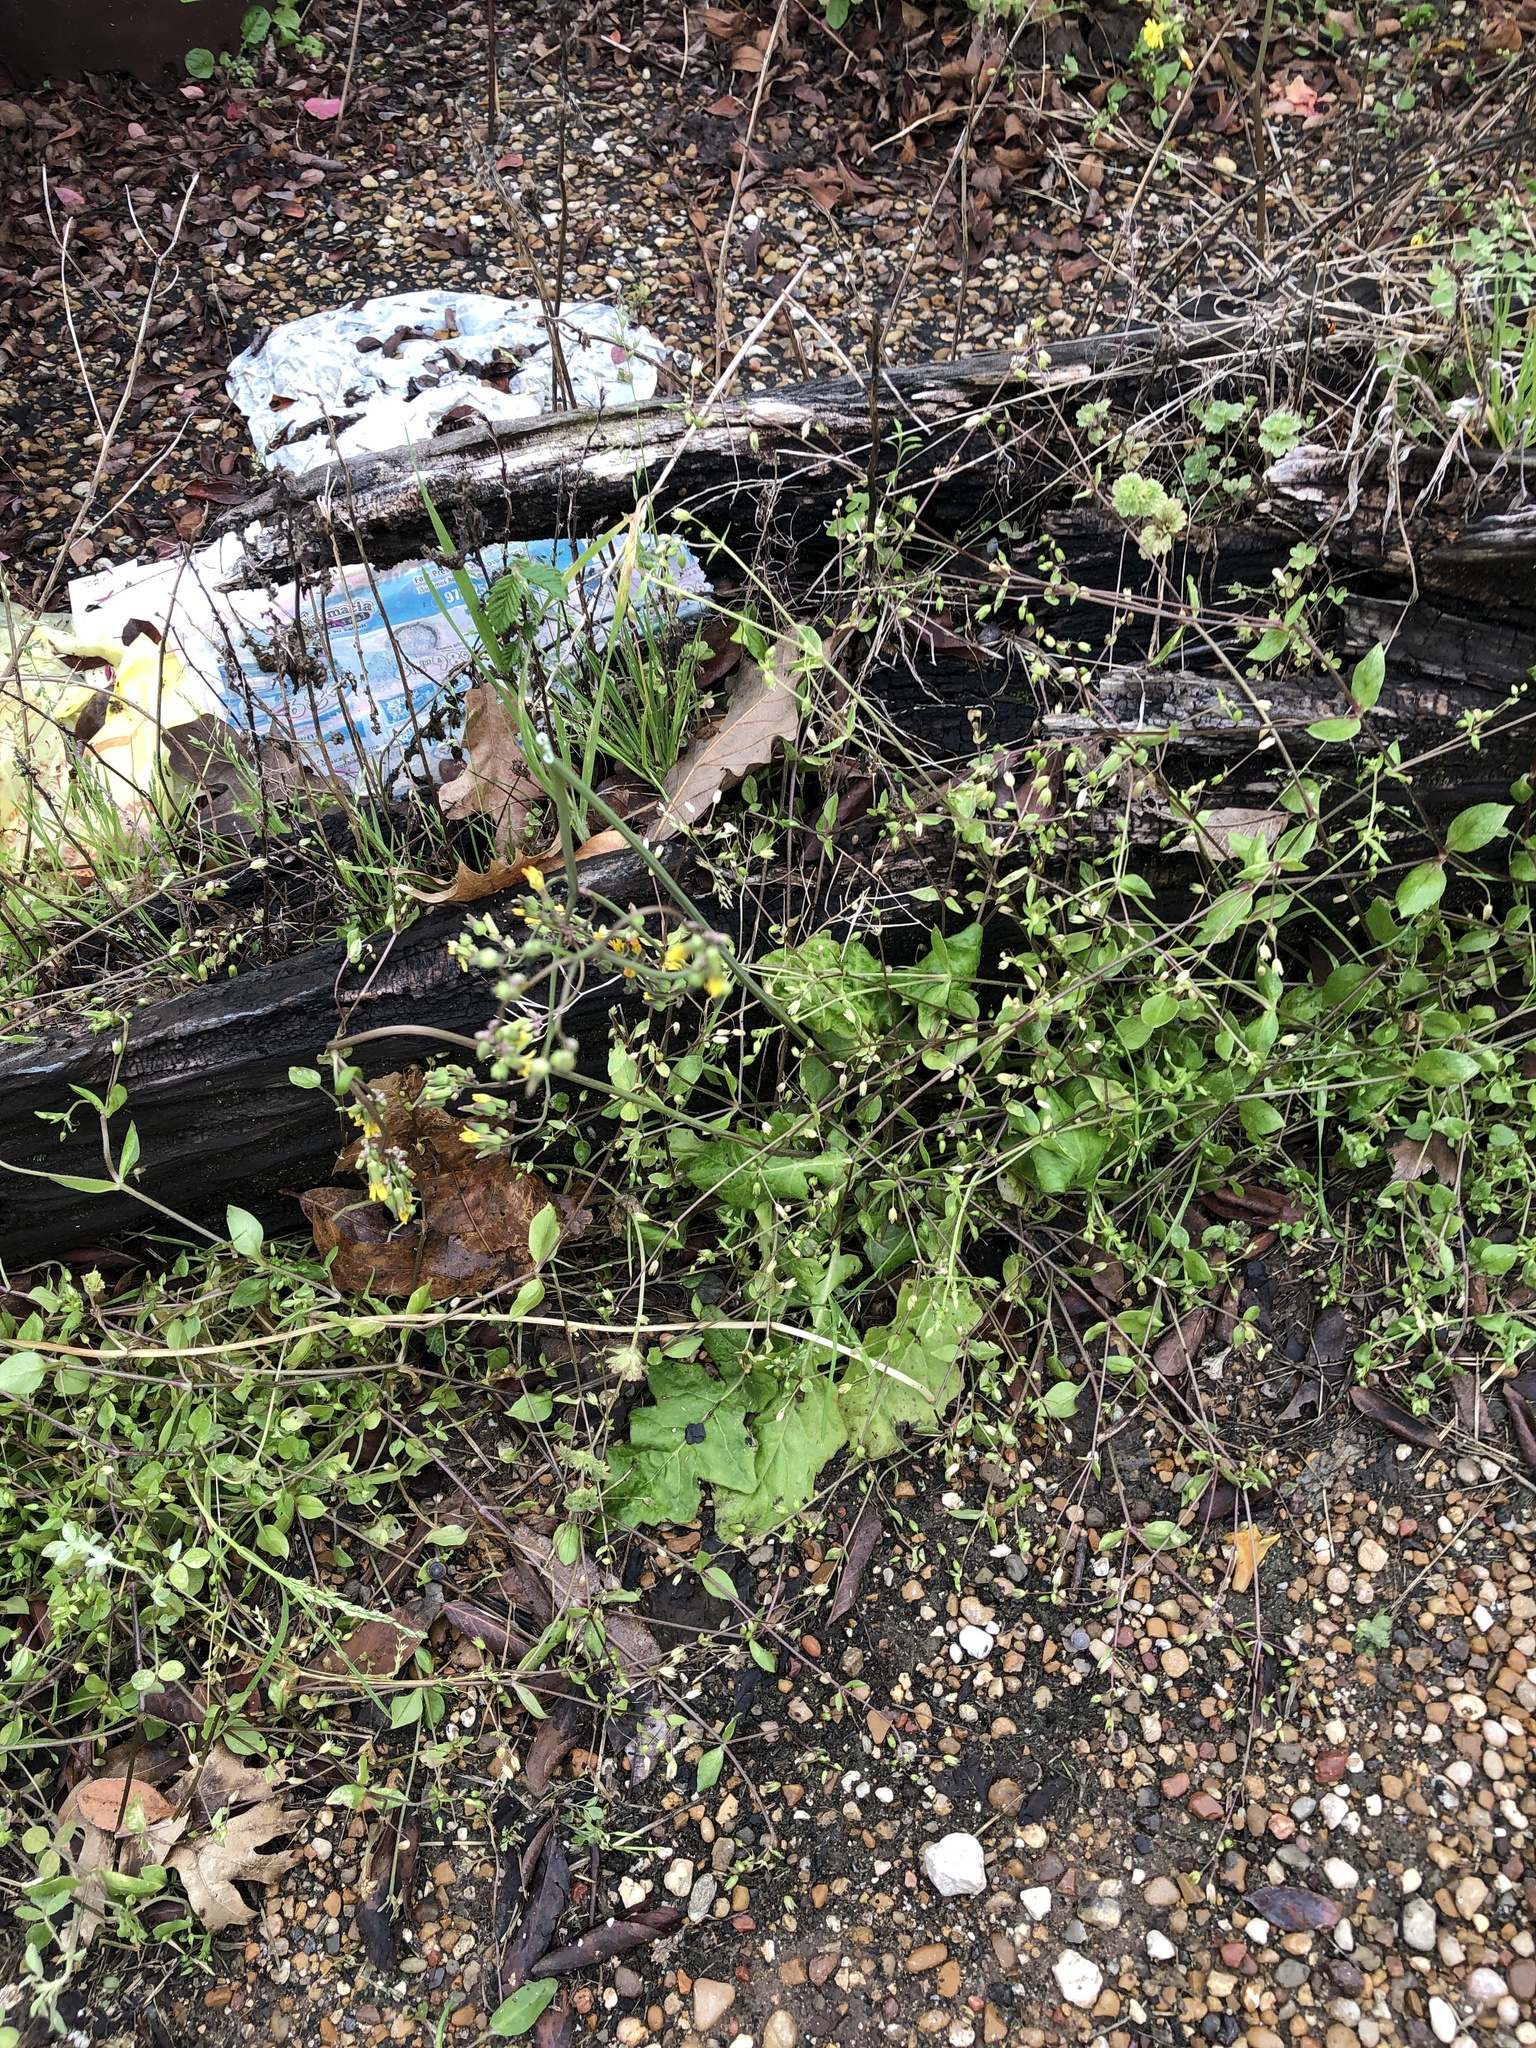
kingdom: Plantae
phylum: Tracheophyta
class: Magnoliopsida
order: Asterales
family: Asteraceae
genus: Youngia
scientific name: Youngia japonica
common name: Oriental false hawksbeard
